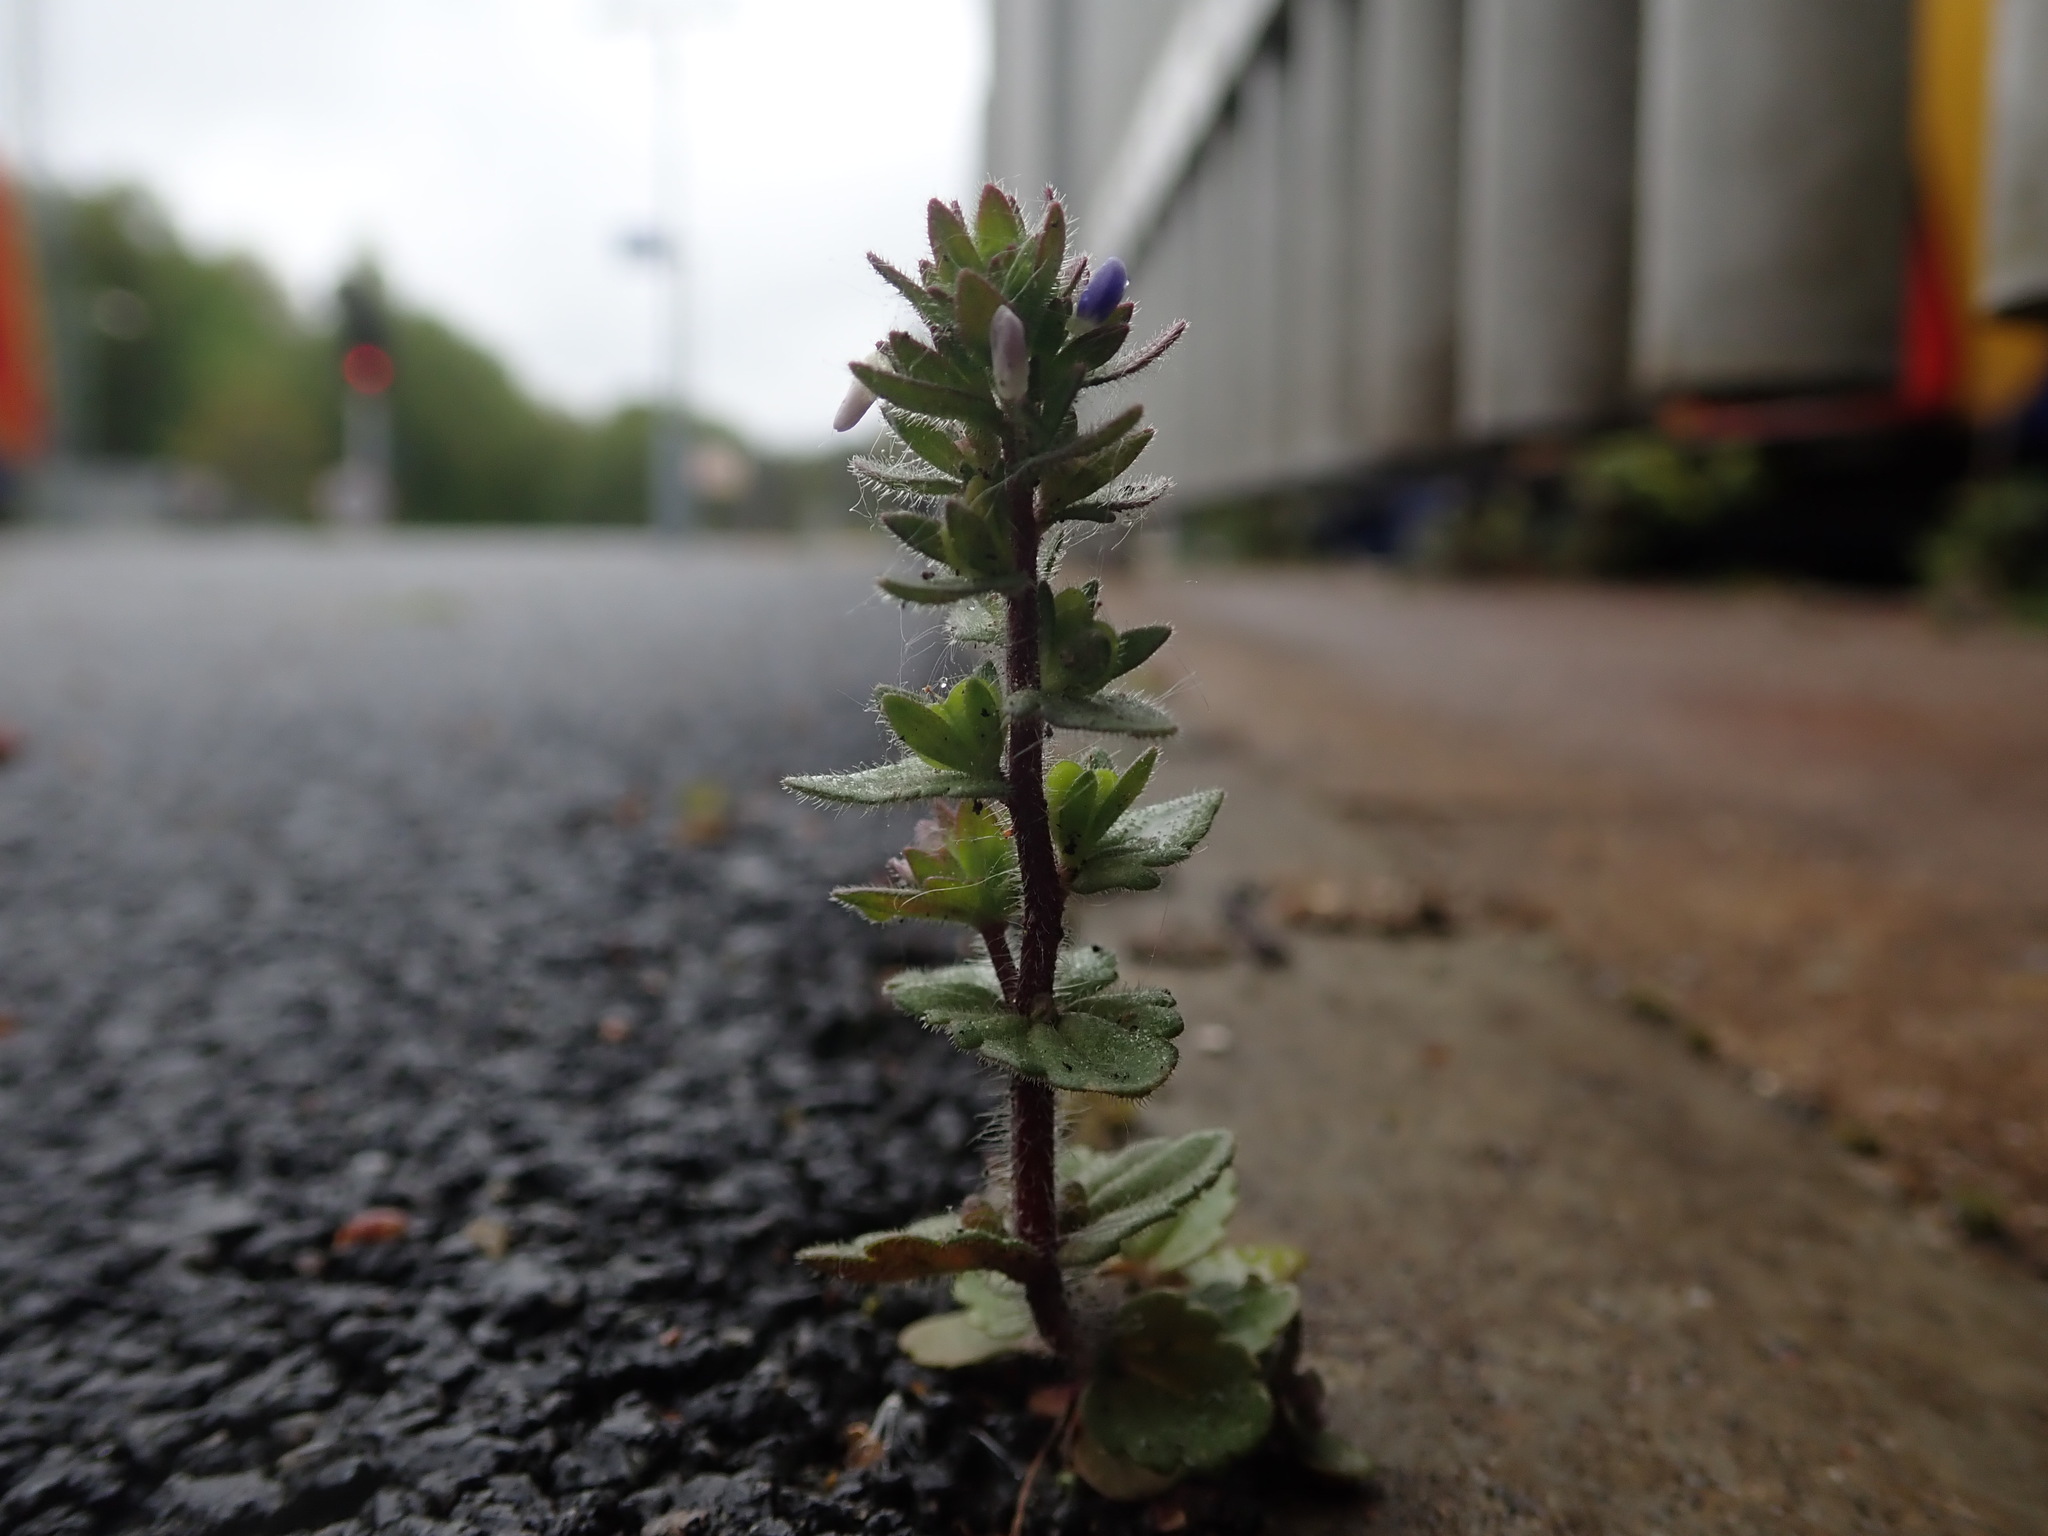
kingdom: Plantae
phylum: Tracheophyta
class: Magnoliopsida
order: Lamiales
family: Plantaginaceae
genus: Veronica
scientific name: Veronica arvensis
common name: Corn speedwell
